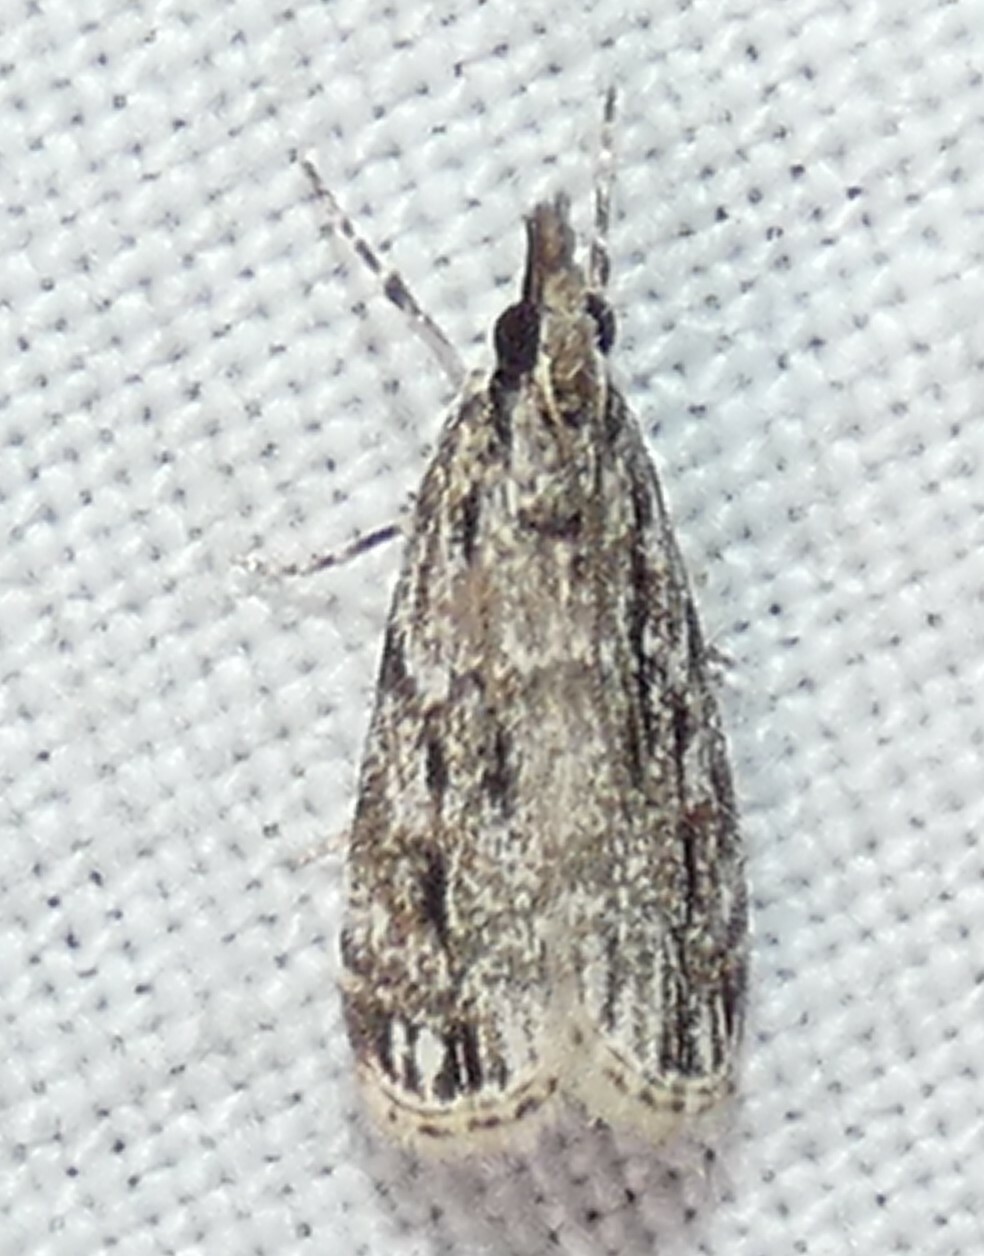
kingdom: Animalia
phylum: Arthropoda
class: Insecta
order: Lepidoptera
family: Crambidae
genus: Eudonia
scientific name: Eudonia strigalis
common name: Striped eudonia moth
